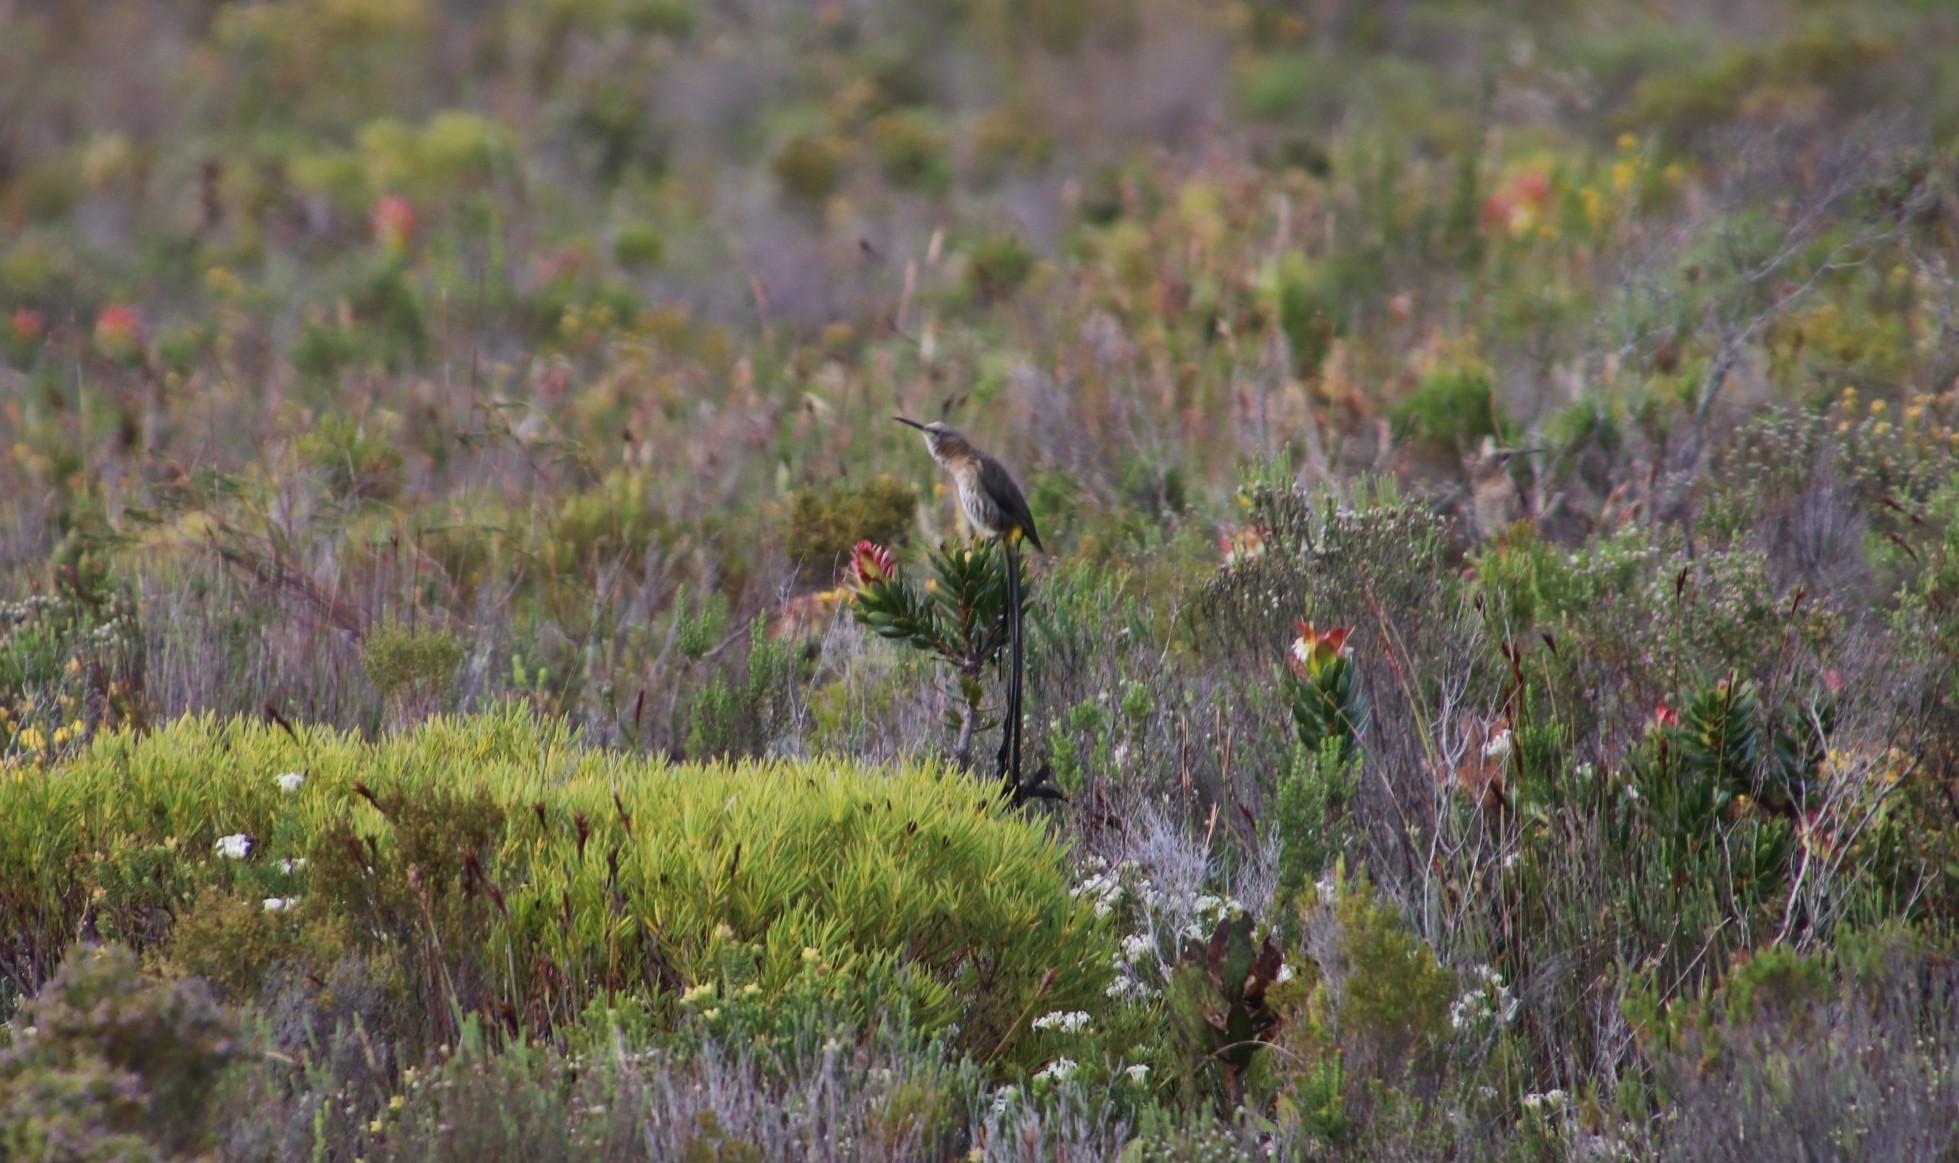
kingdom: Animalia
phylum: Chordata
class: Aves
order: Passeriformes
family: Promeropidae
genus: Promerops
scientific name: Promerops cafer
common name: Cape sugarbird
